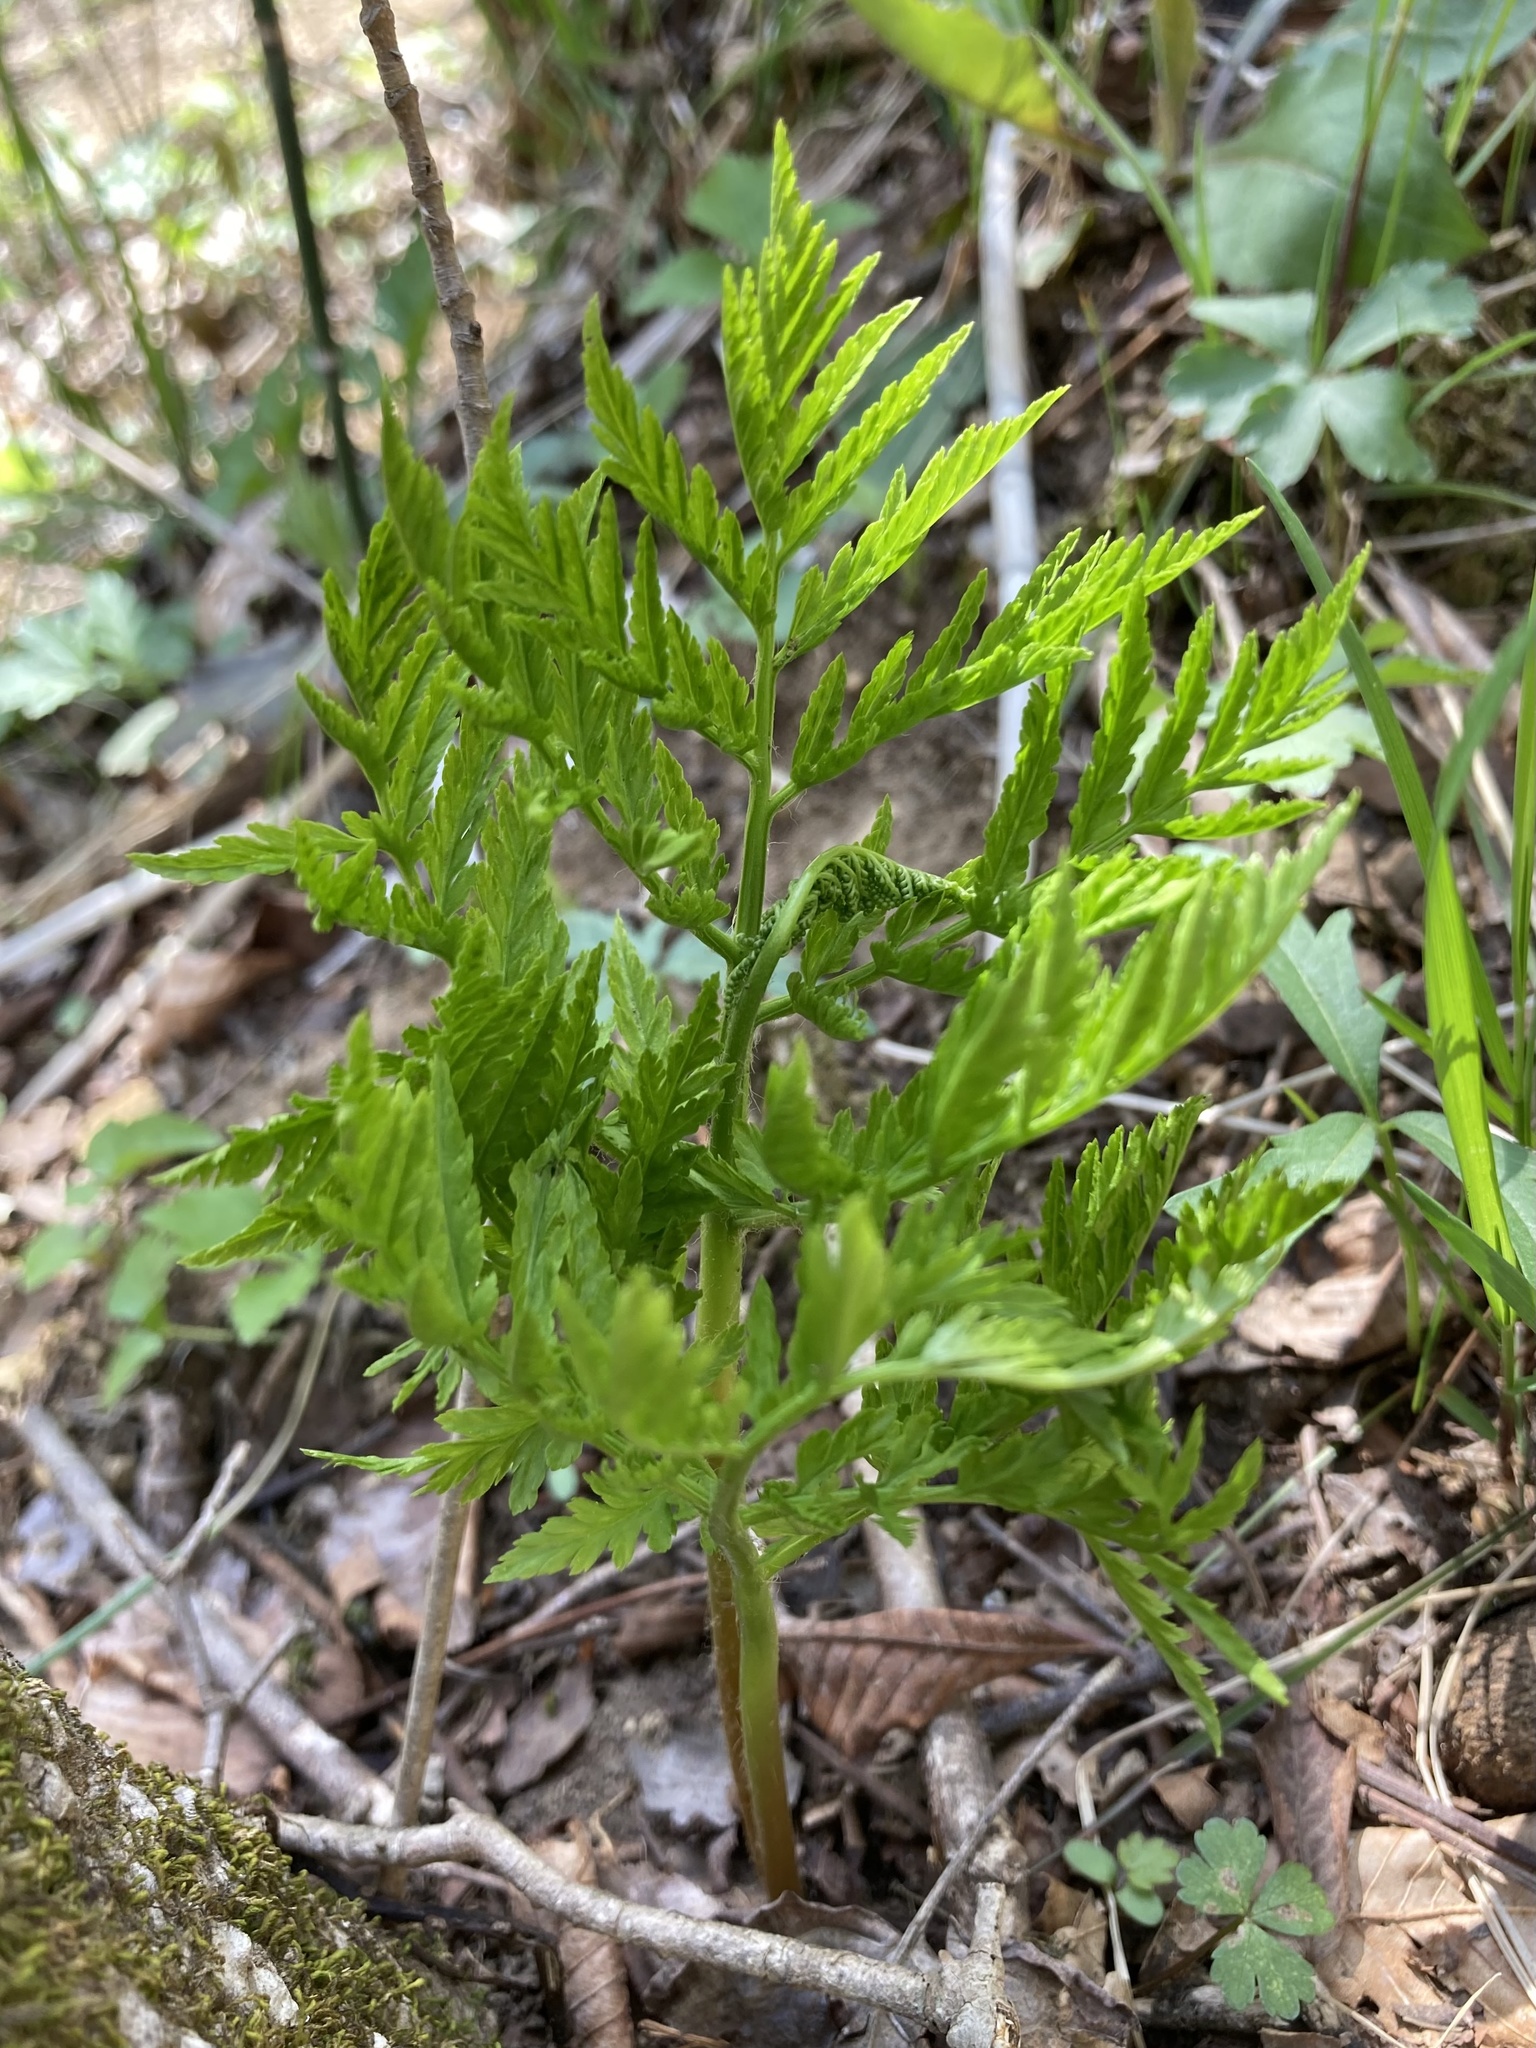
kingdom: Plantae
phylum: Tracheophyta
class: Polypodiopsida
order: Ophioglossales
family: Ophioglossaceae
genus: Botrypus
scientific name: Botrypus virginianus
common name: Common grapefern
